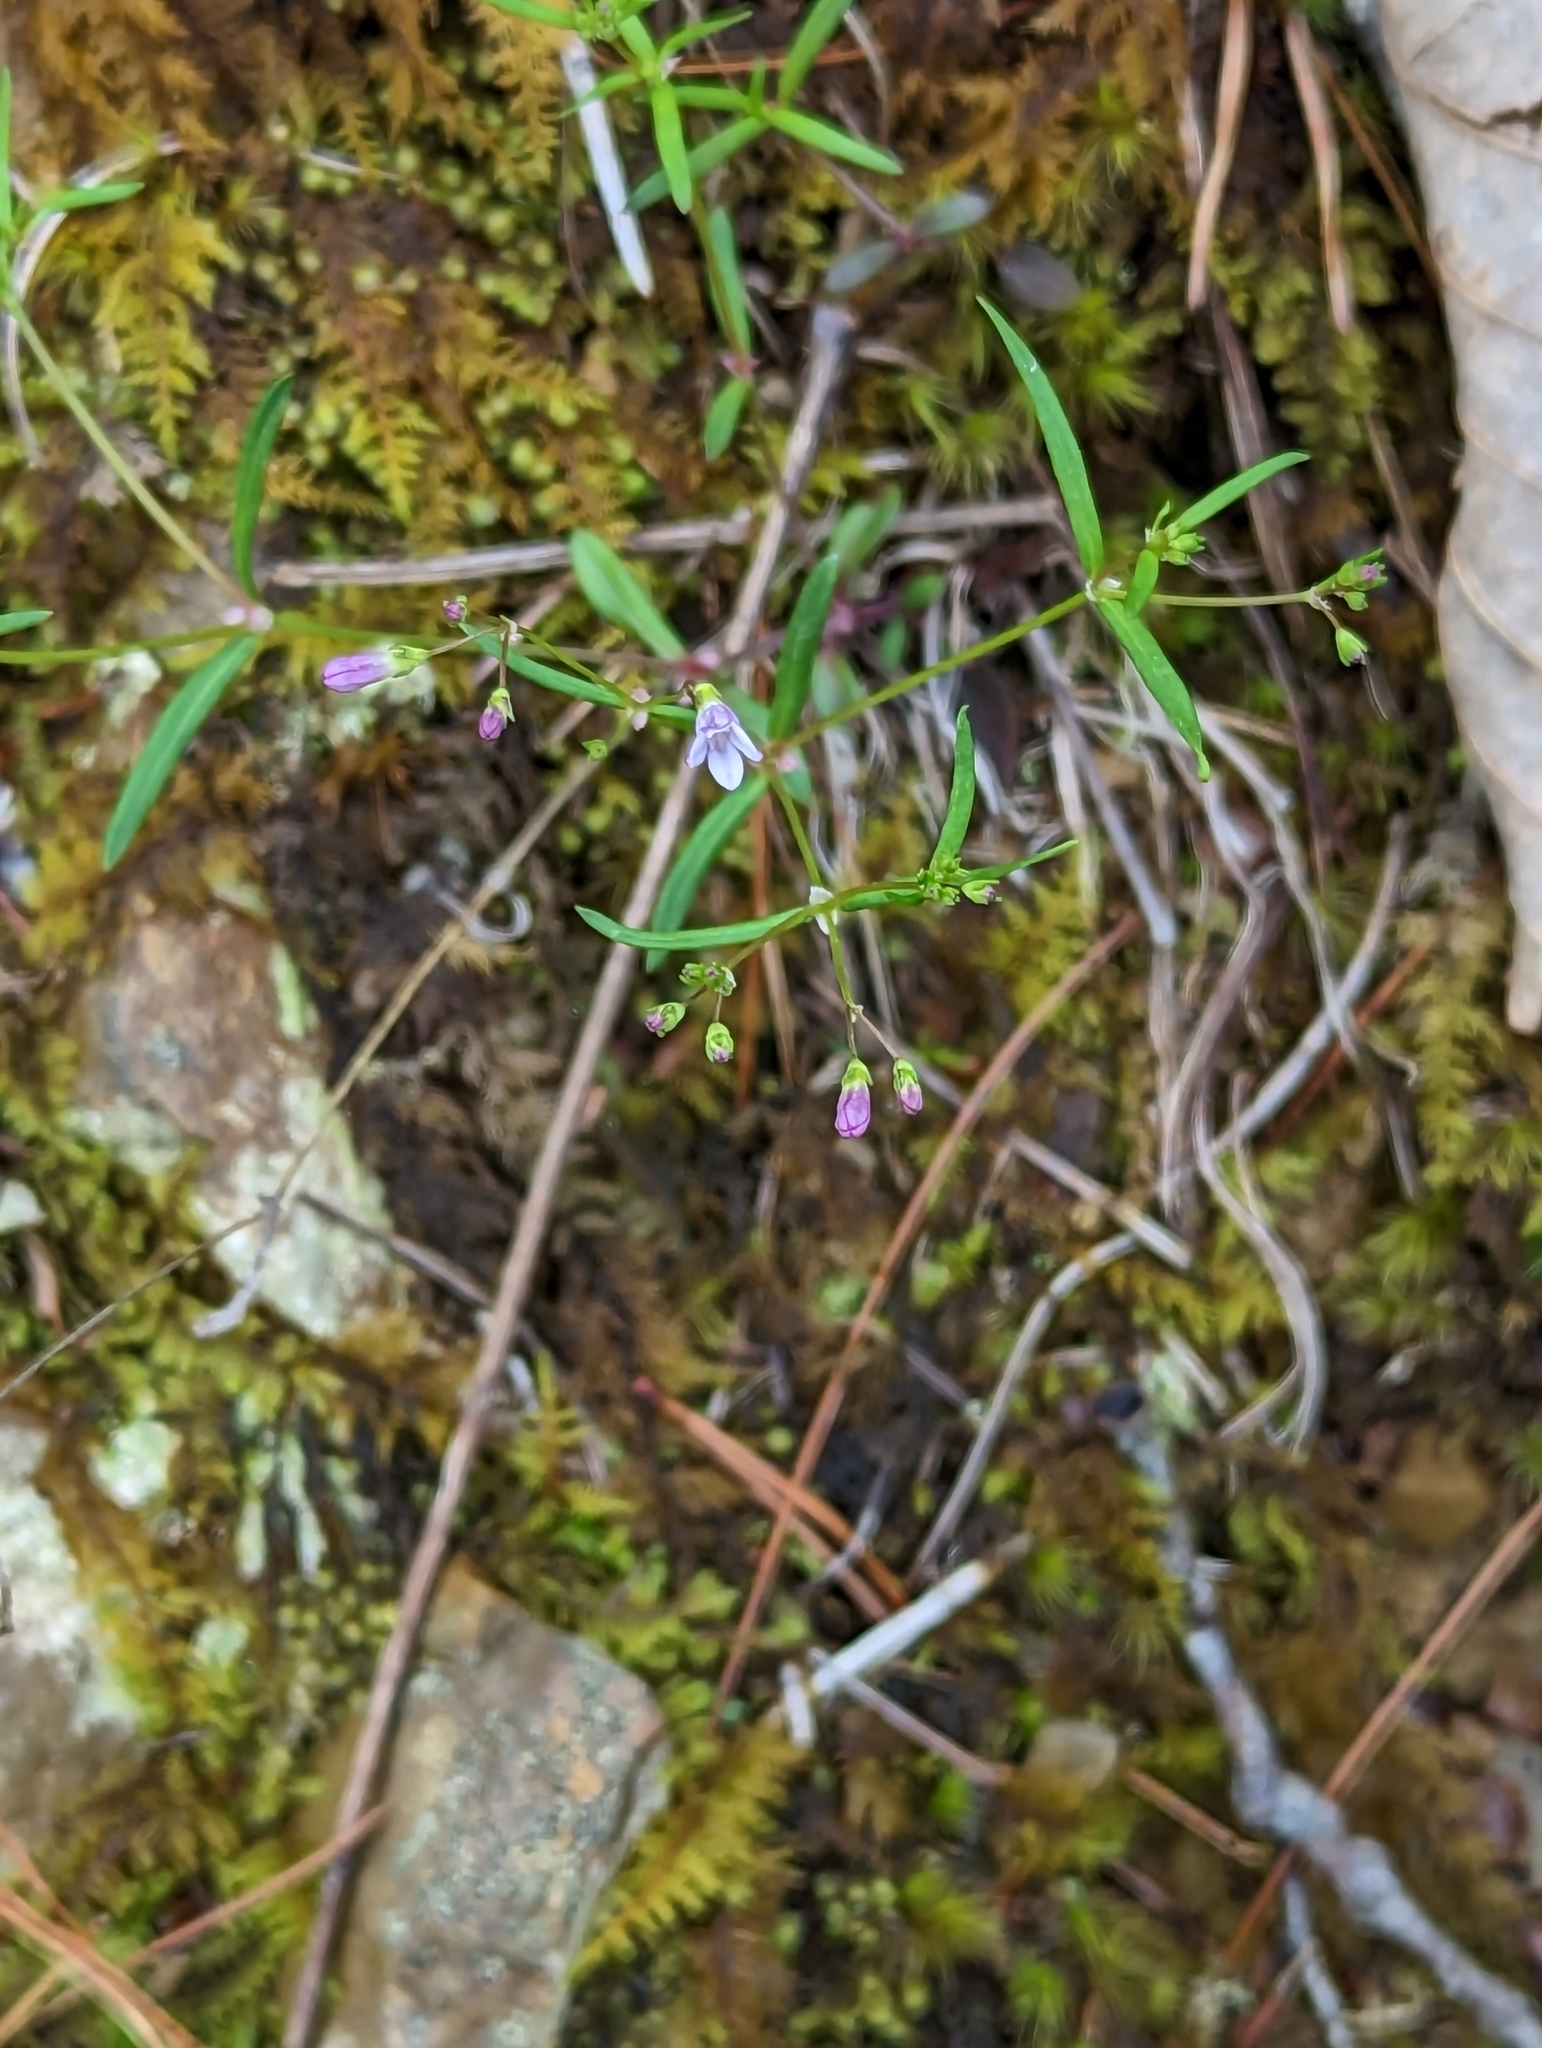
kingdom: Plantae
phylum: Tracheophyta
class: Magnoliopsida
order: Gentianales
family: Rubiaceae
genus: Houstonia
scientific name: Houstonia longifolia
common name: Long-leaved bluets
